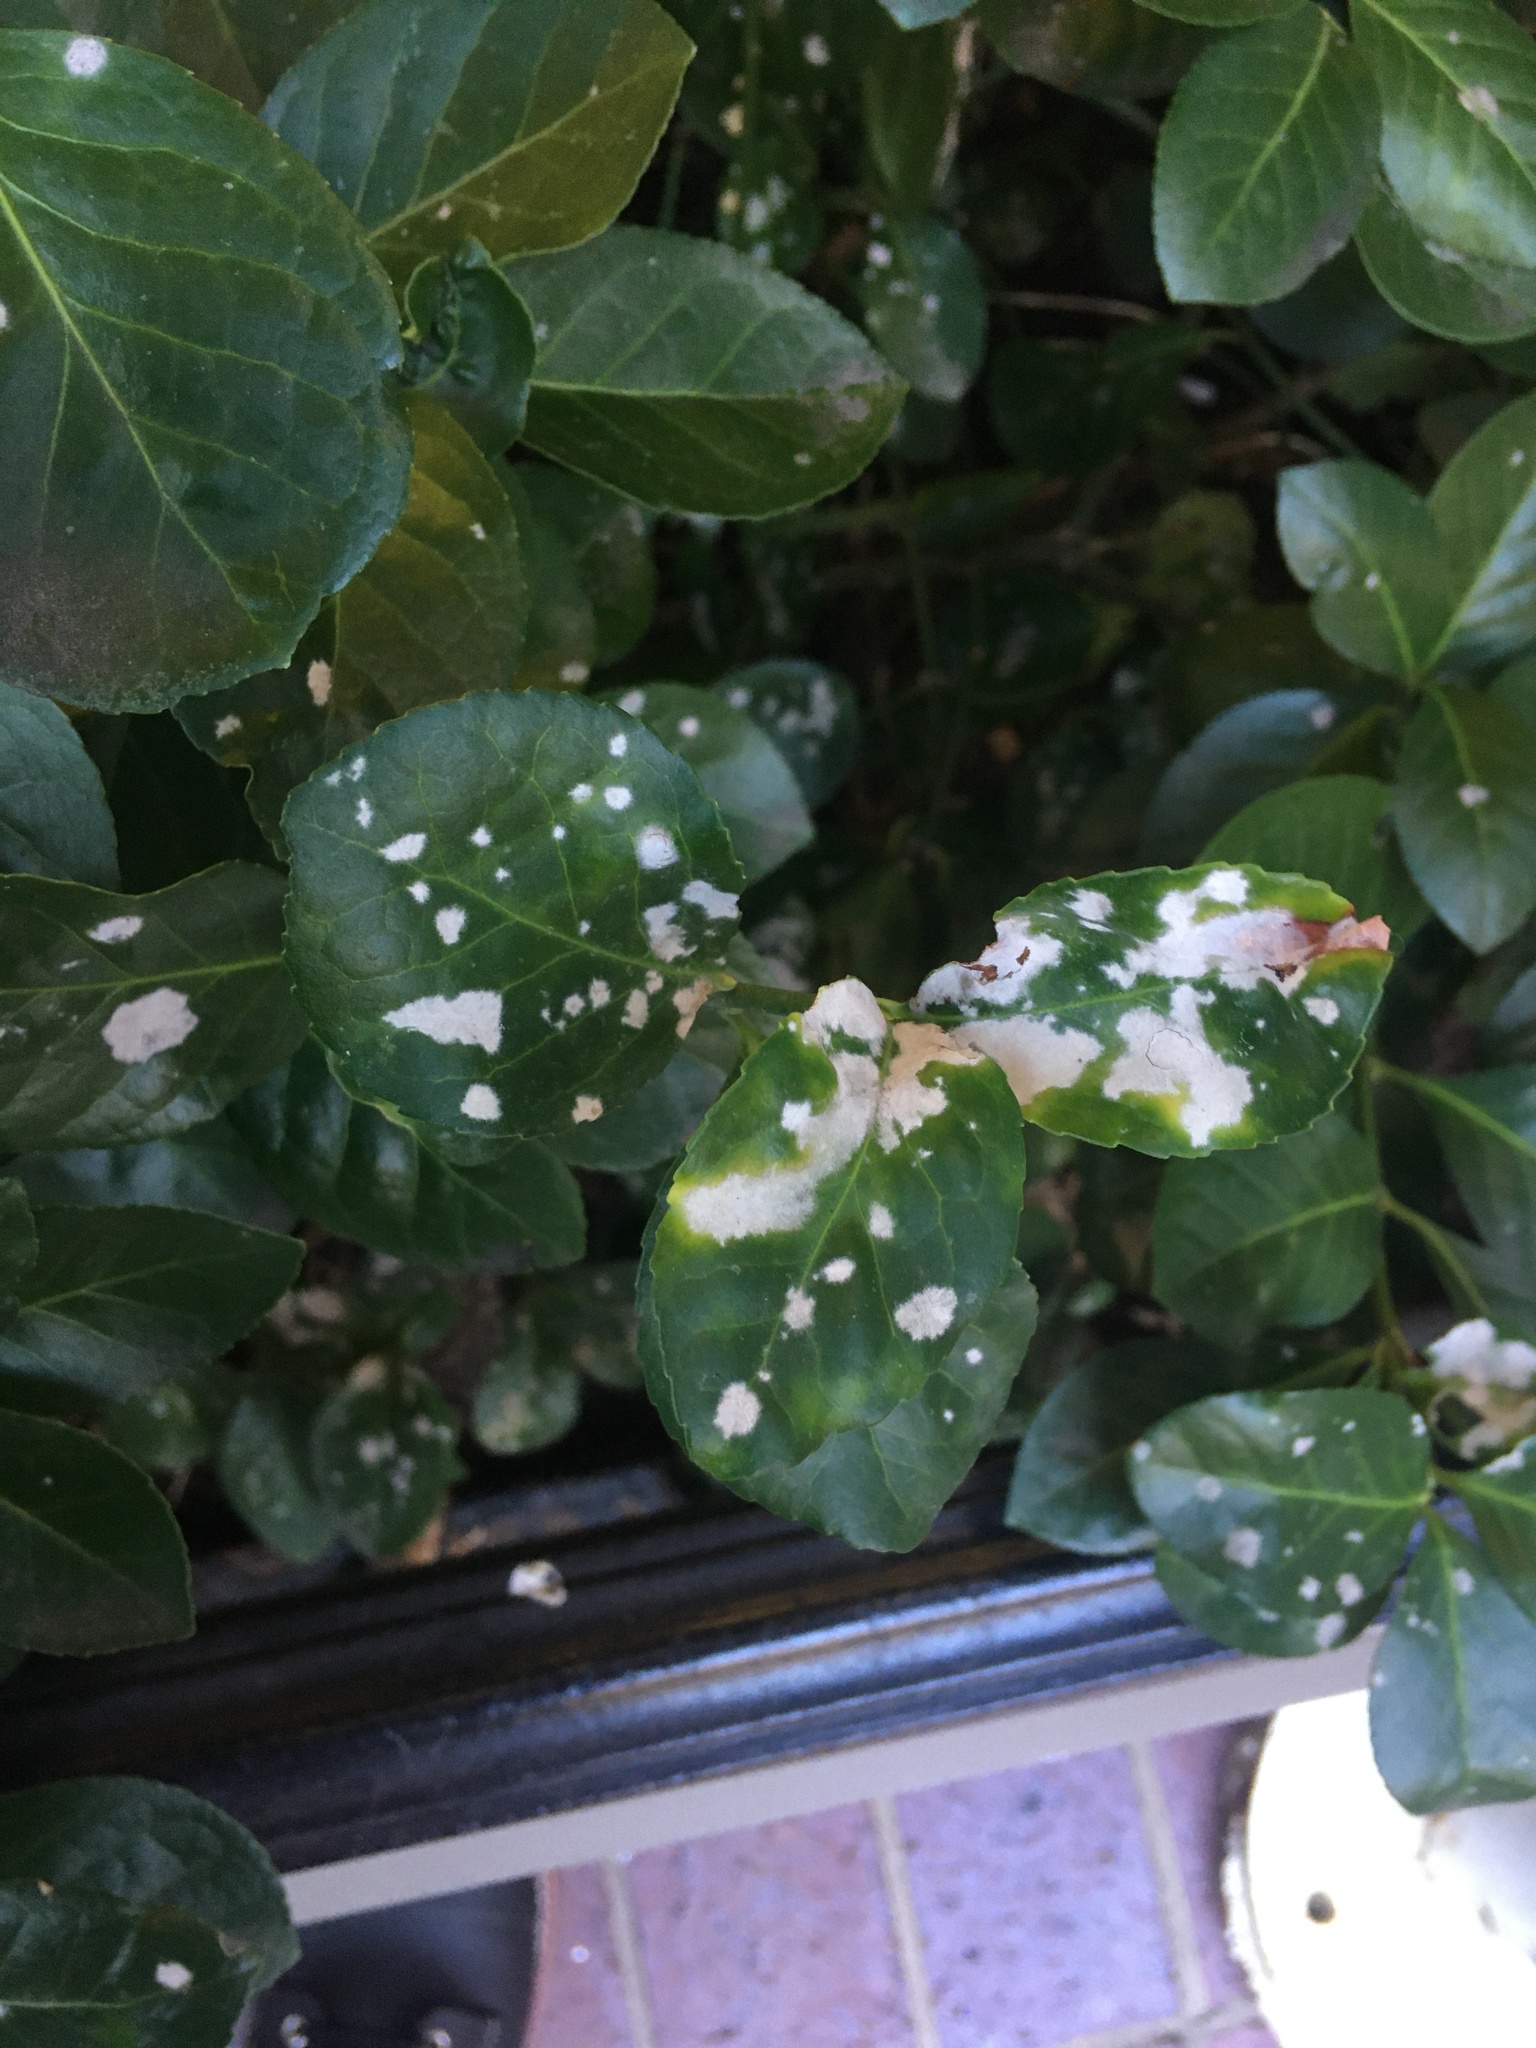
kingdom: Fungi
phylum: Ascomycota
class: Leotiomycetes
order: Helotiales
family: Erysiphaceae
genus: Erysiphe
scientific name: Erysiphe euonymicola
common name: Spindletree mildew
